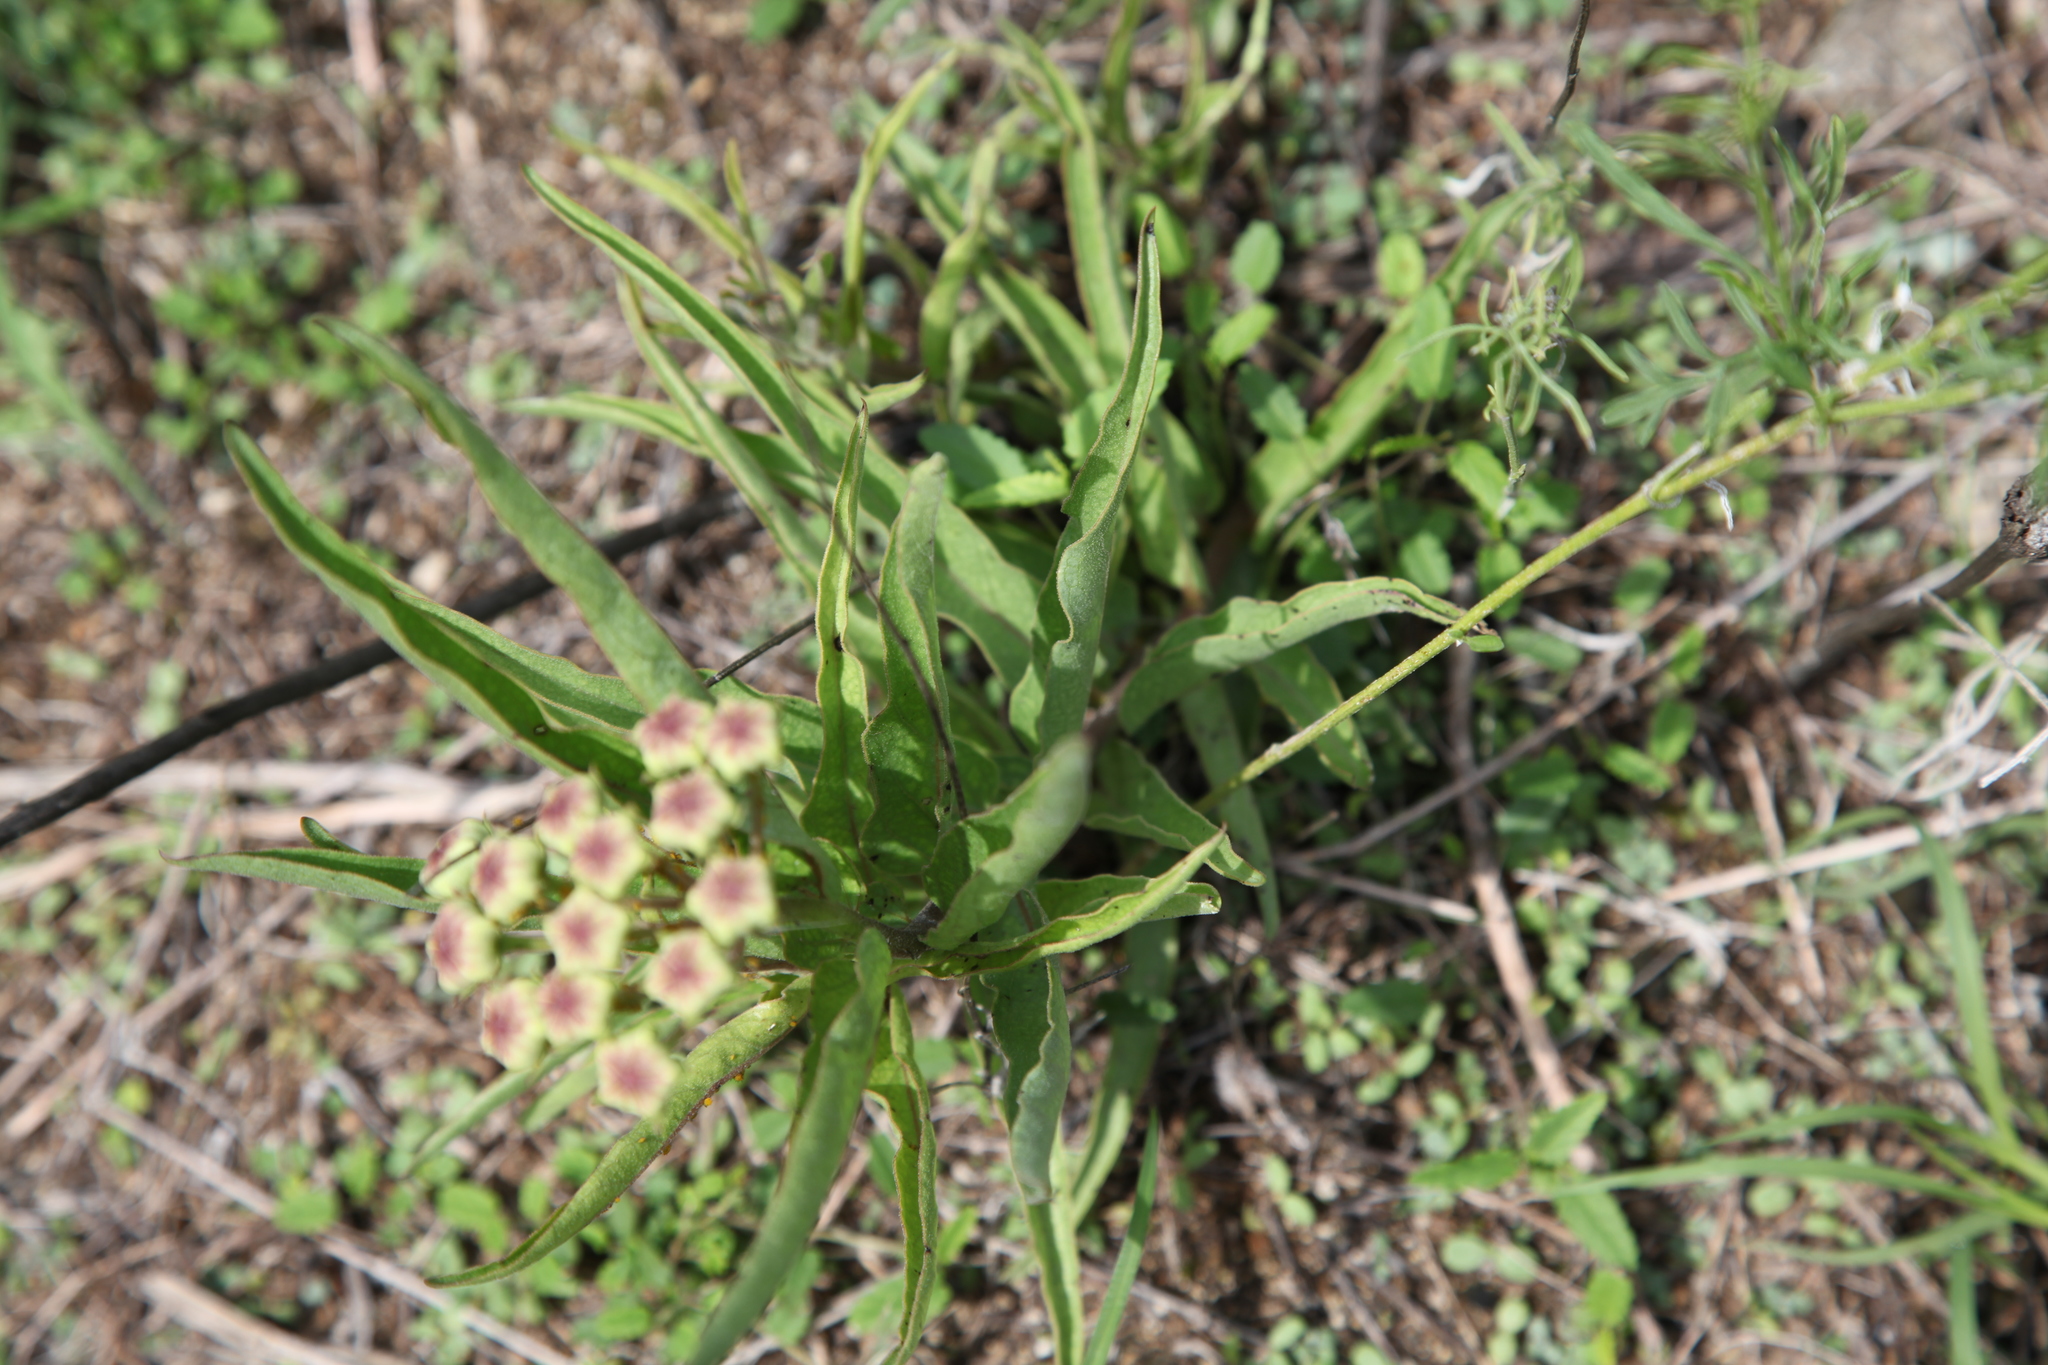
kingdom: Plantae
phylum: Tracheophyta
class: Magnoliopsida
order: Gentianales
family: Apocynaceae
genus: Asclepias
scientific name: Asclepias asperula
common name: Antelope horns
